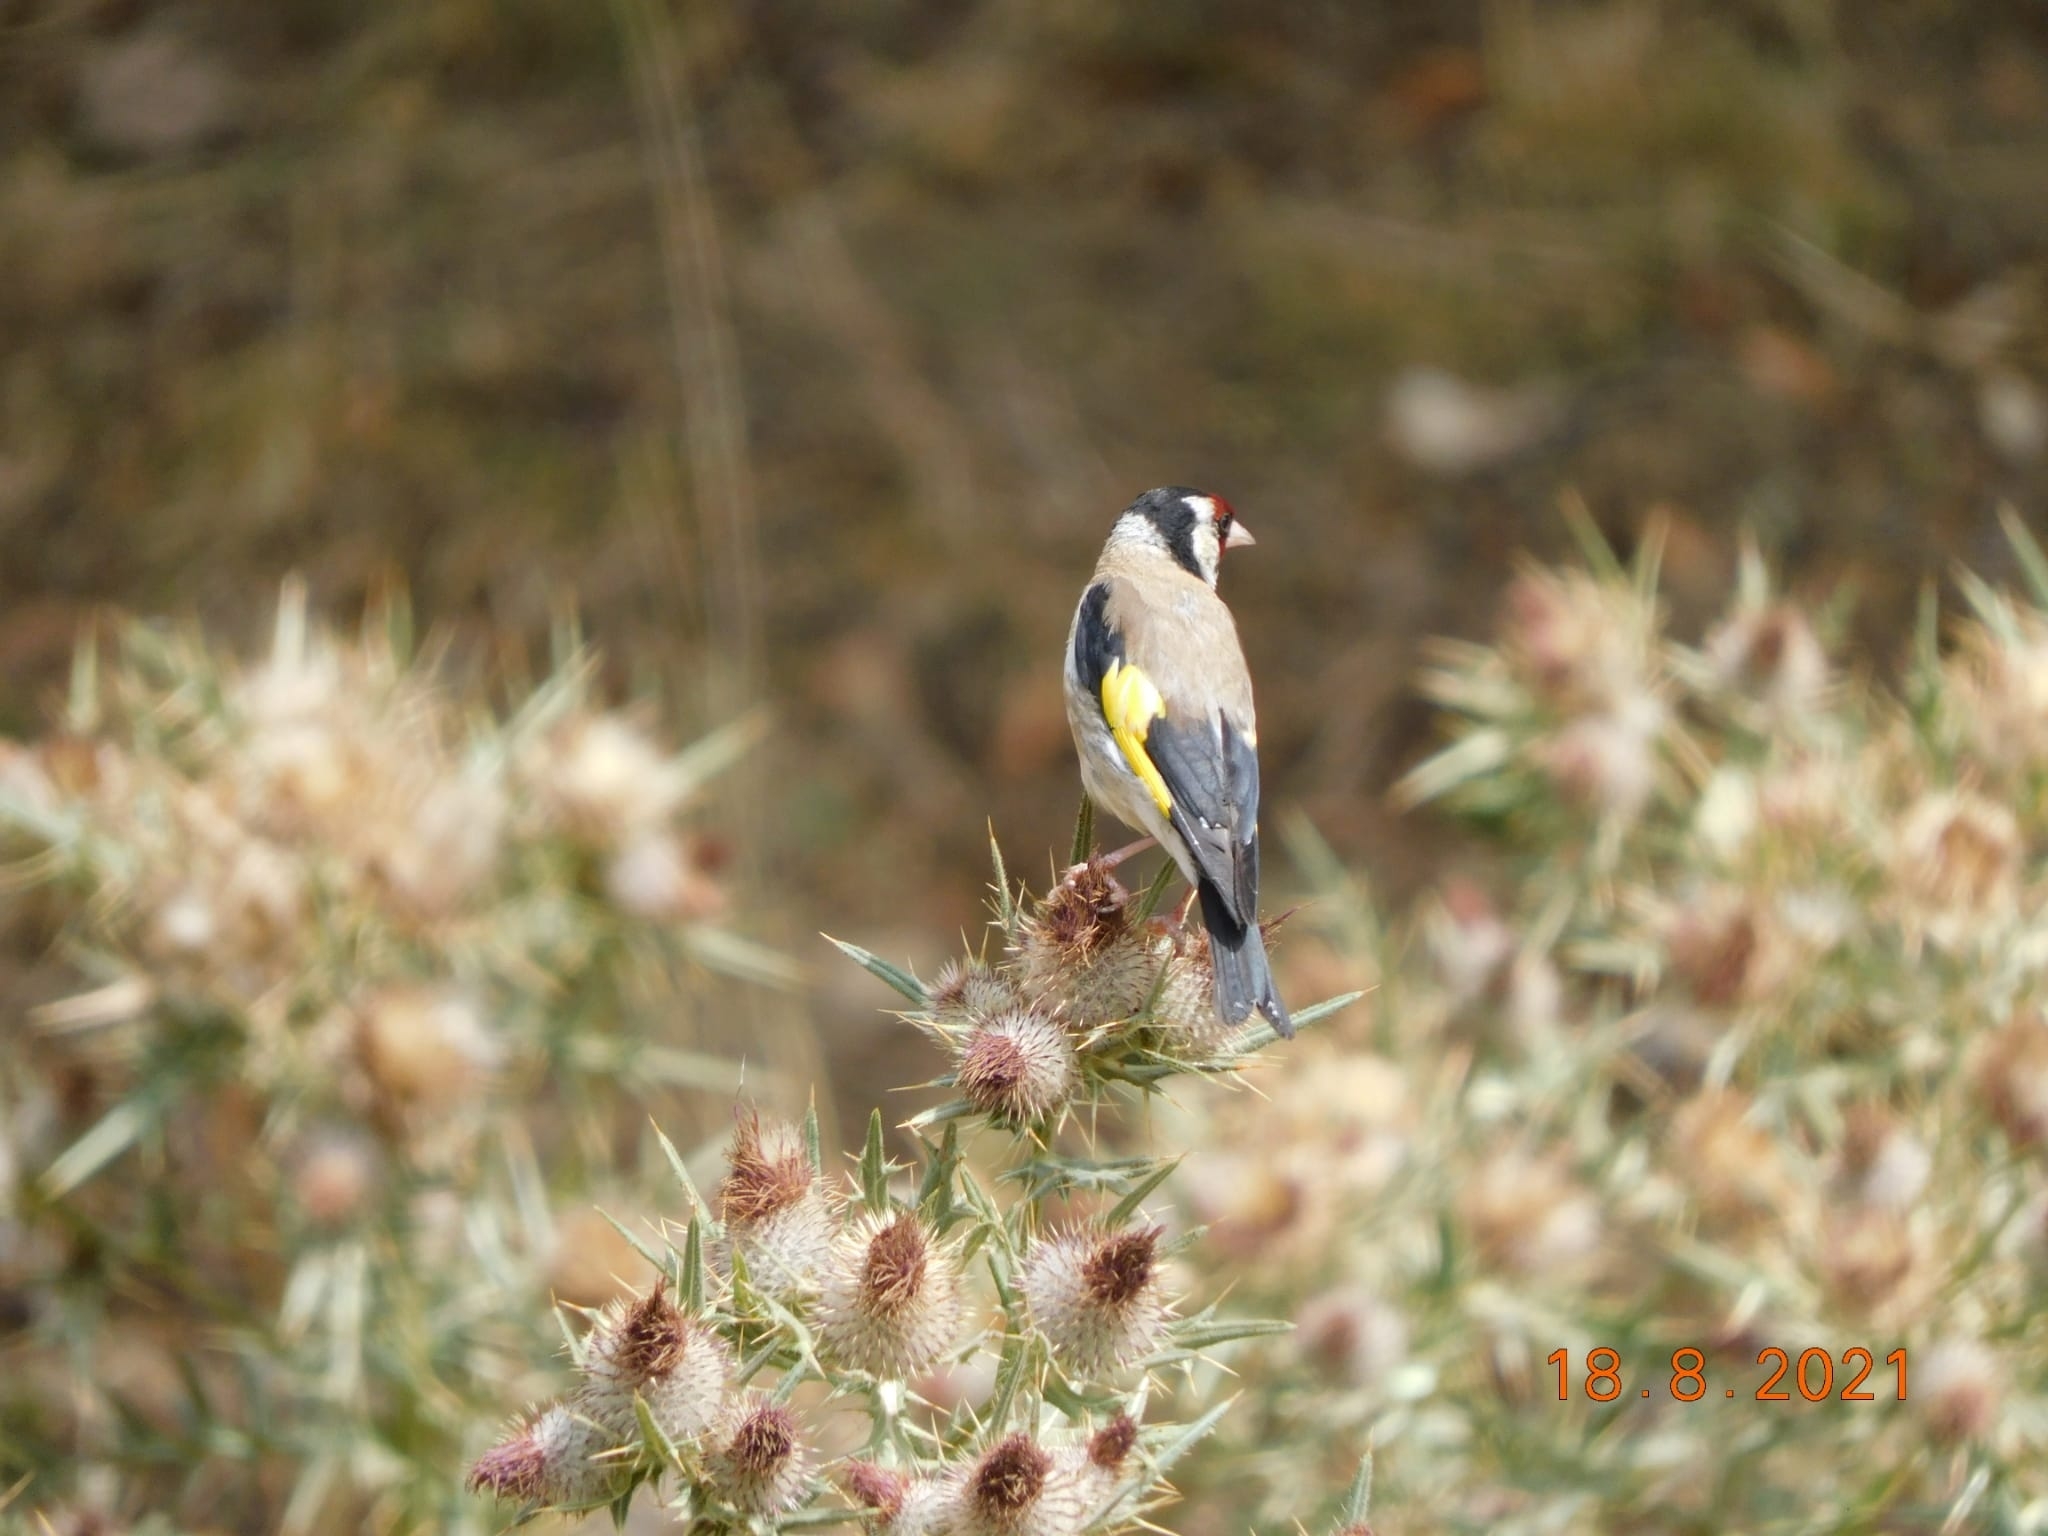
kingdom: Animalia
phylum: Chordata
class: Aves
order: Passeriformes
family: Fringillidae
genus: Carduelis
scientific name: Carduelis carduelis
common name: European goldfinch
